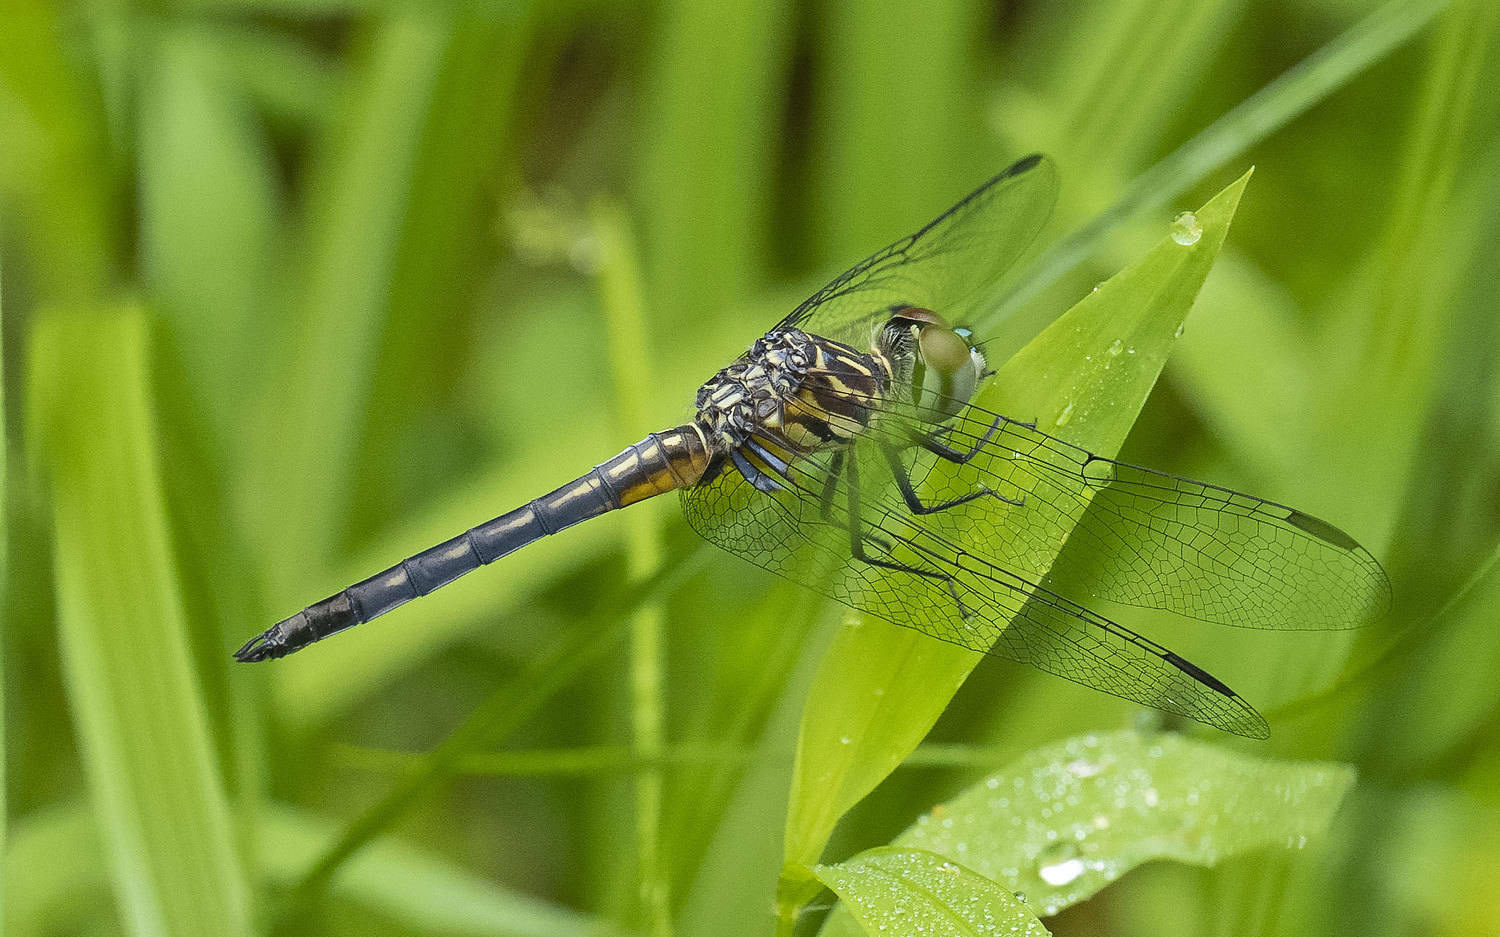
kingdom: Animalia
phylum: Arthropoda
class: Insecta
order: Odonata
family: Libellulidae
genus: Pachydiplax
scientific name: Pachydiplax longipennis
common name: Blue dasher
